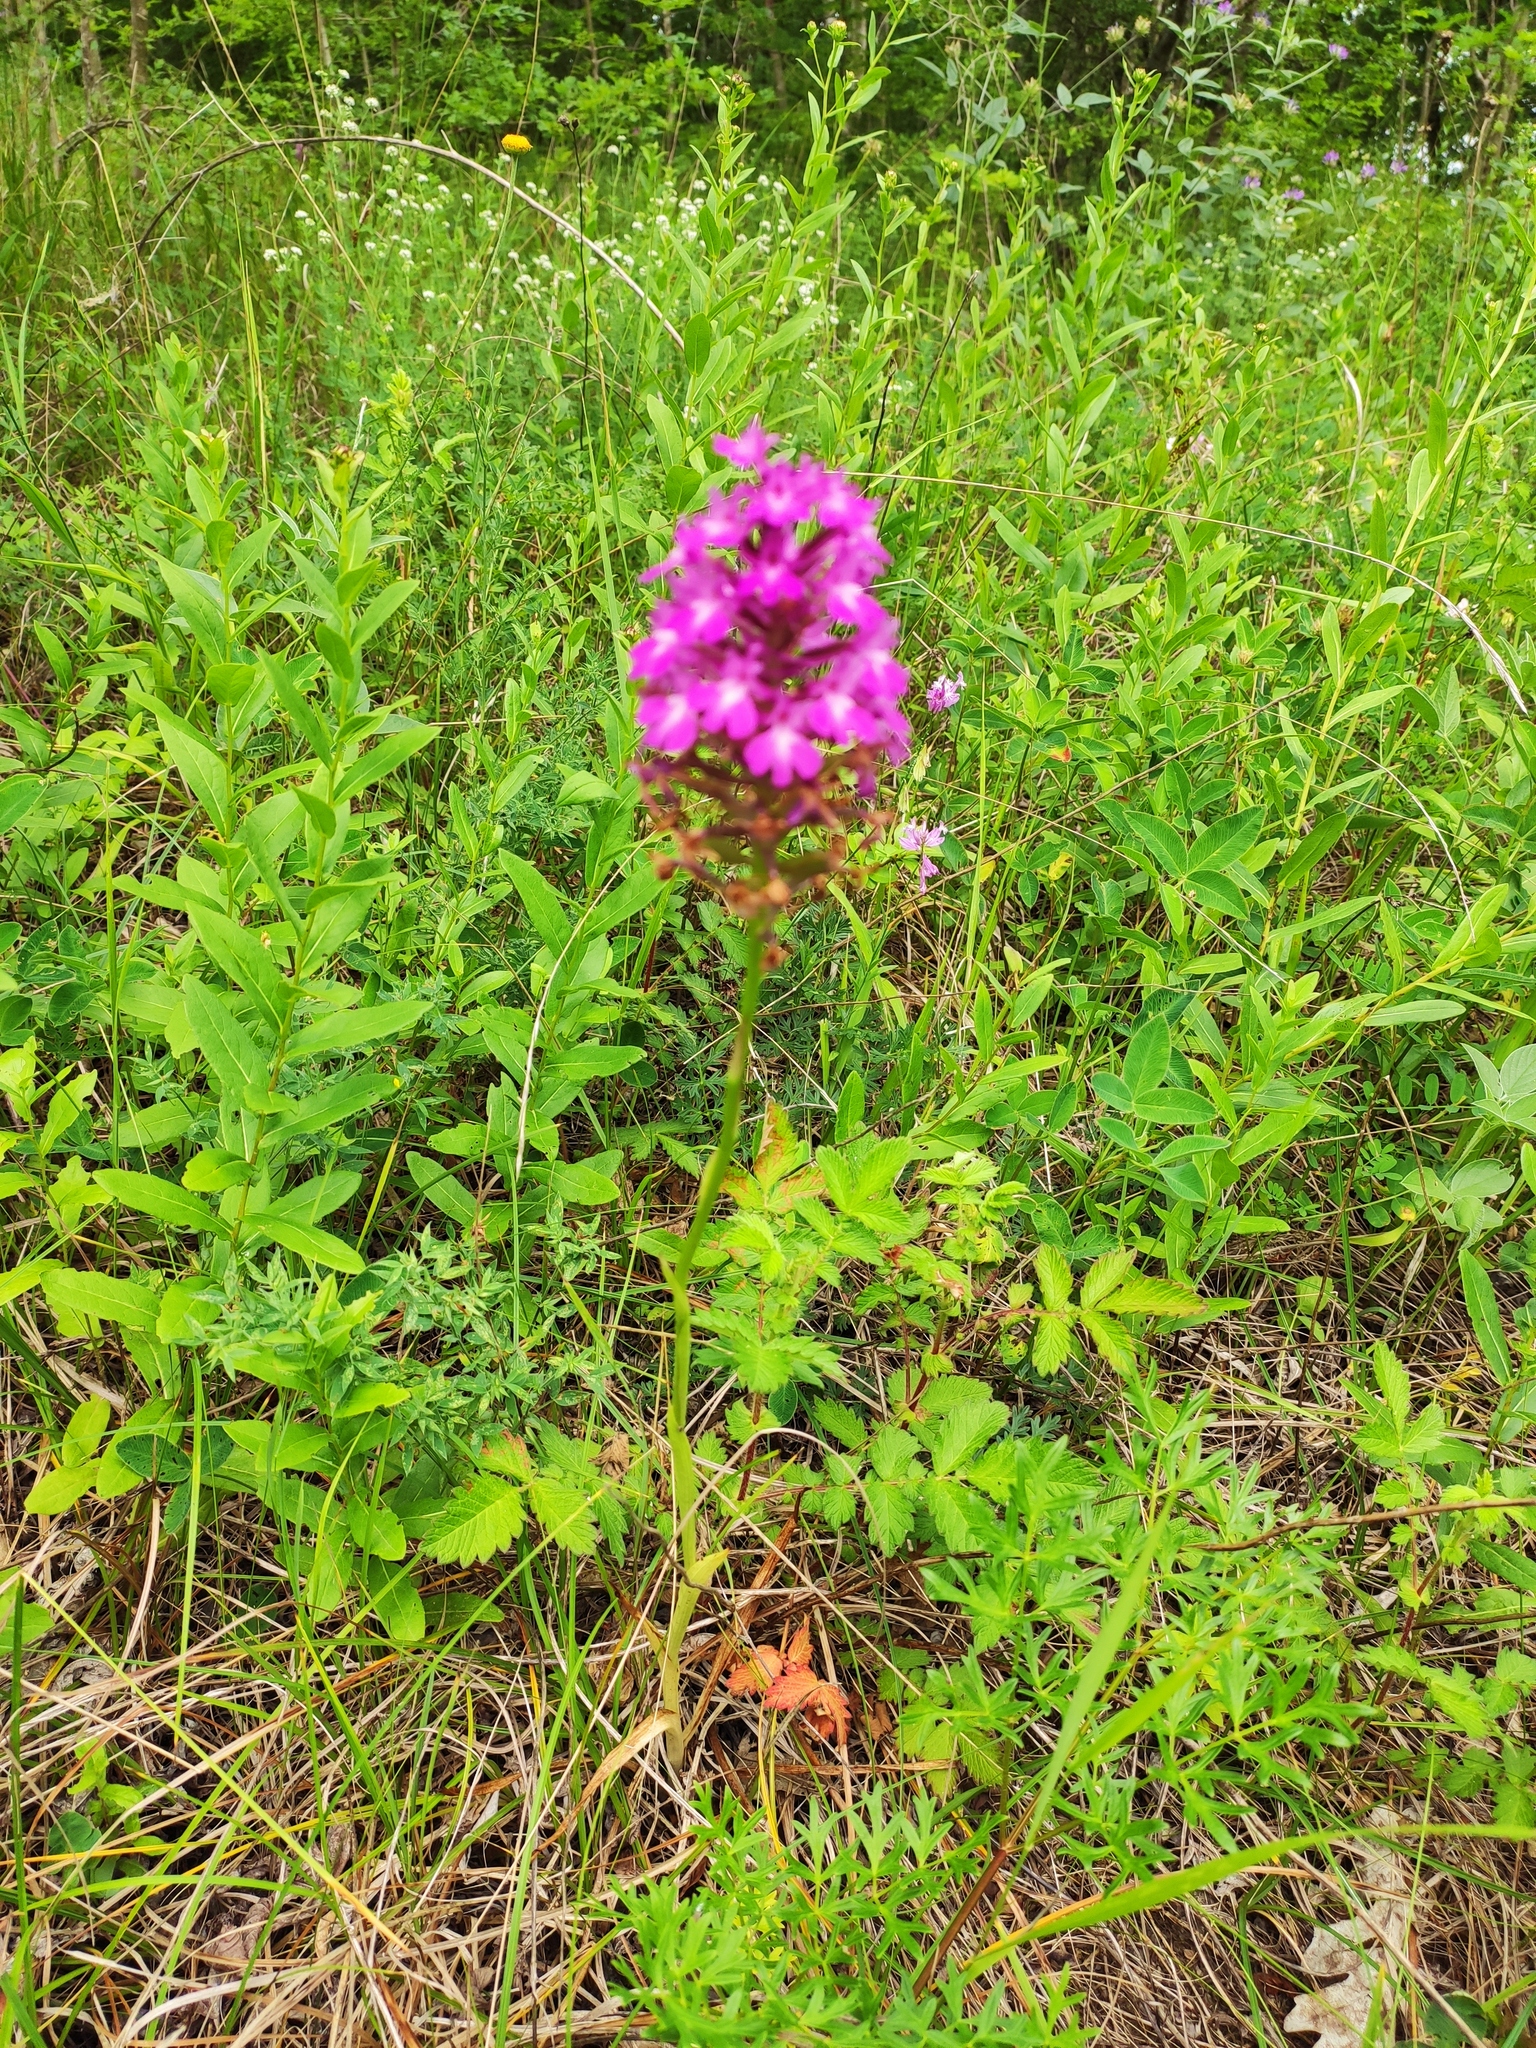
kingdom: Plantae
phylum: Tracheophyta
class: Liliopsida
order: Asparagales
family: Orchidaceae
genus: Anacamptis
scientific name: Anacamptis pyramidalis
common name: Pyramidal orchid
